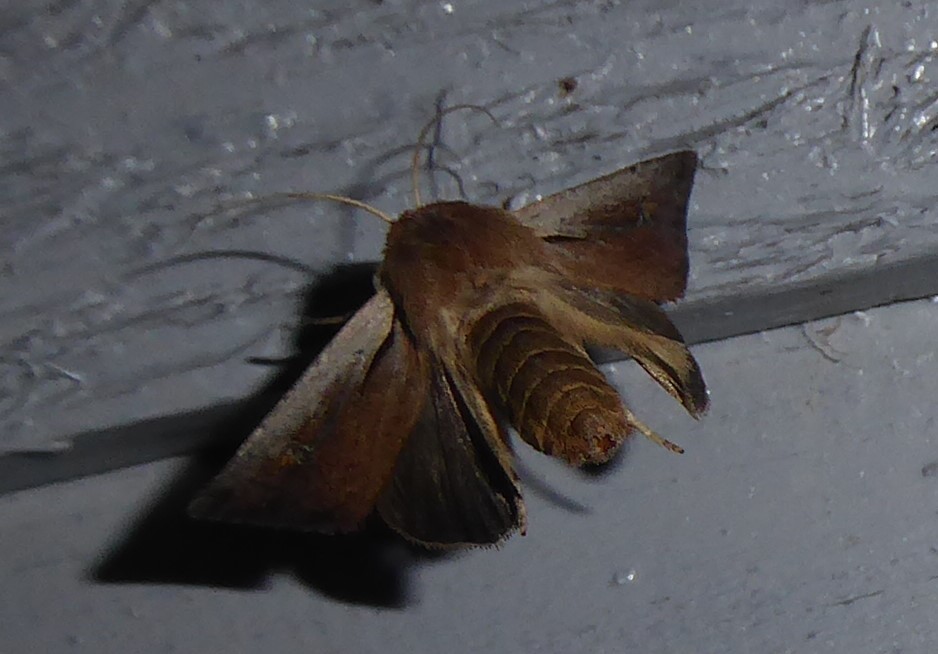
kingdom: Animalia
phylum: Arthropoda
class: Insecta
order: Lepidoptera
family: Noctuidae
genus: Ichneutica
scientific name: Ichneutica atristriga
